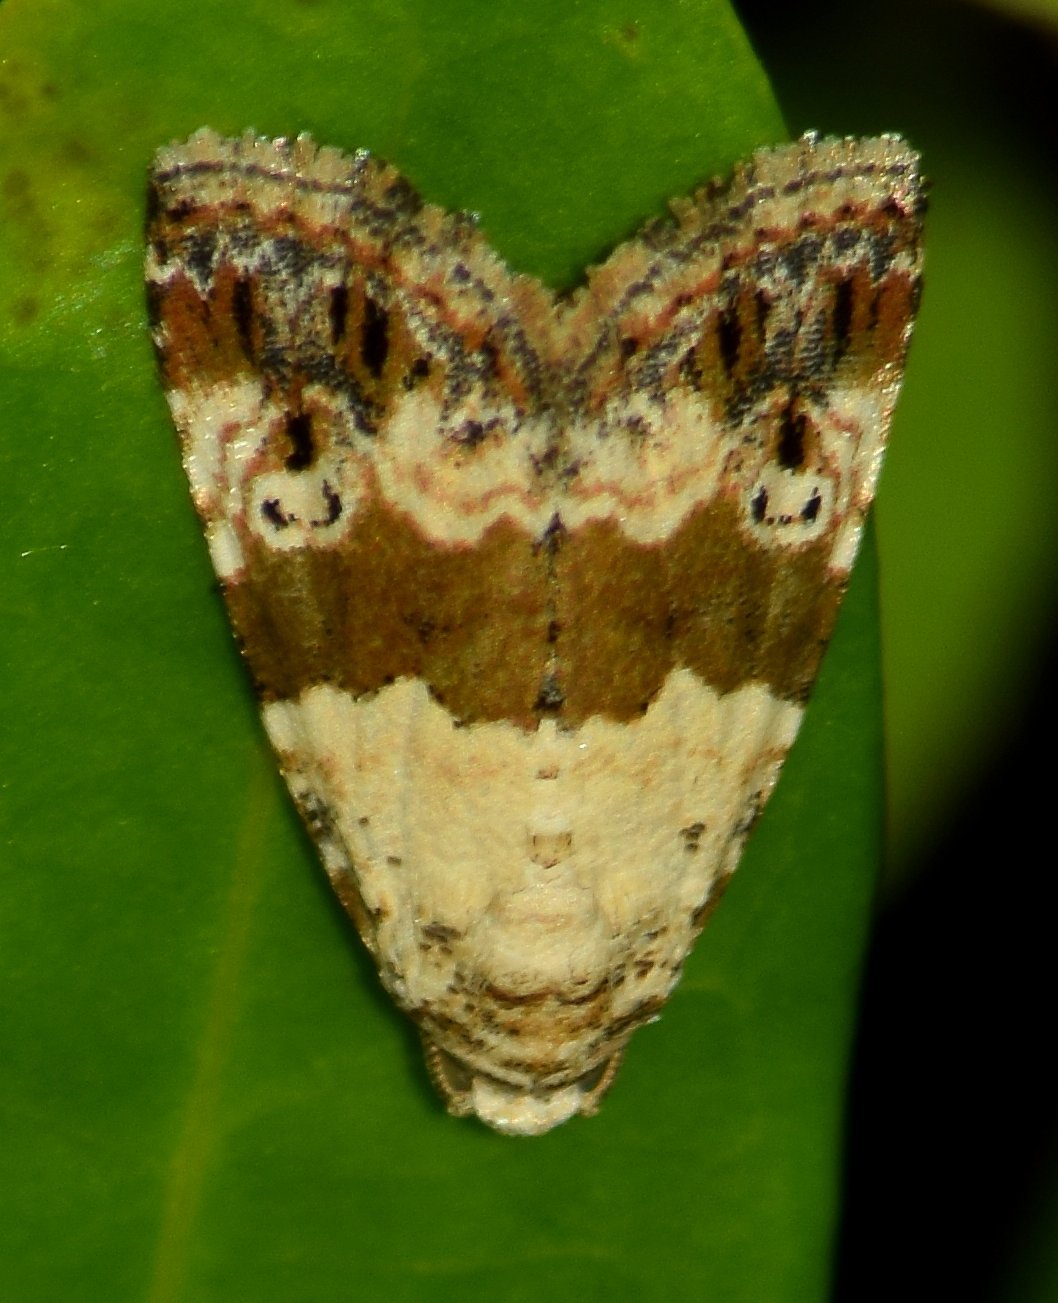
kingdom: Animalia
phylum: Arthropoda
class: Insecta
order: Lepidoptera
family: Noctuidae
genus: Maliattha
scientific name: Maliattha signifera
